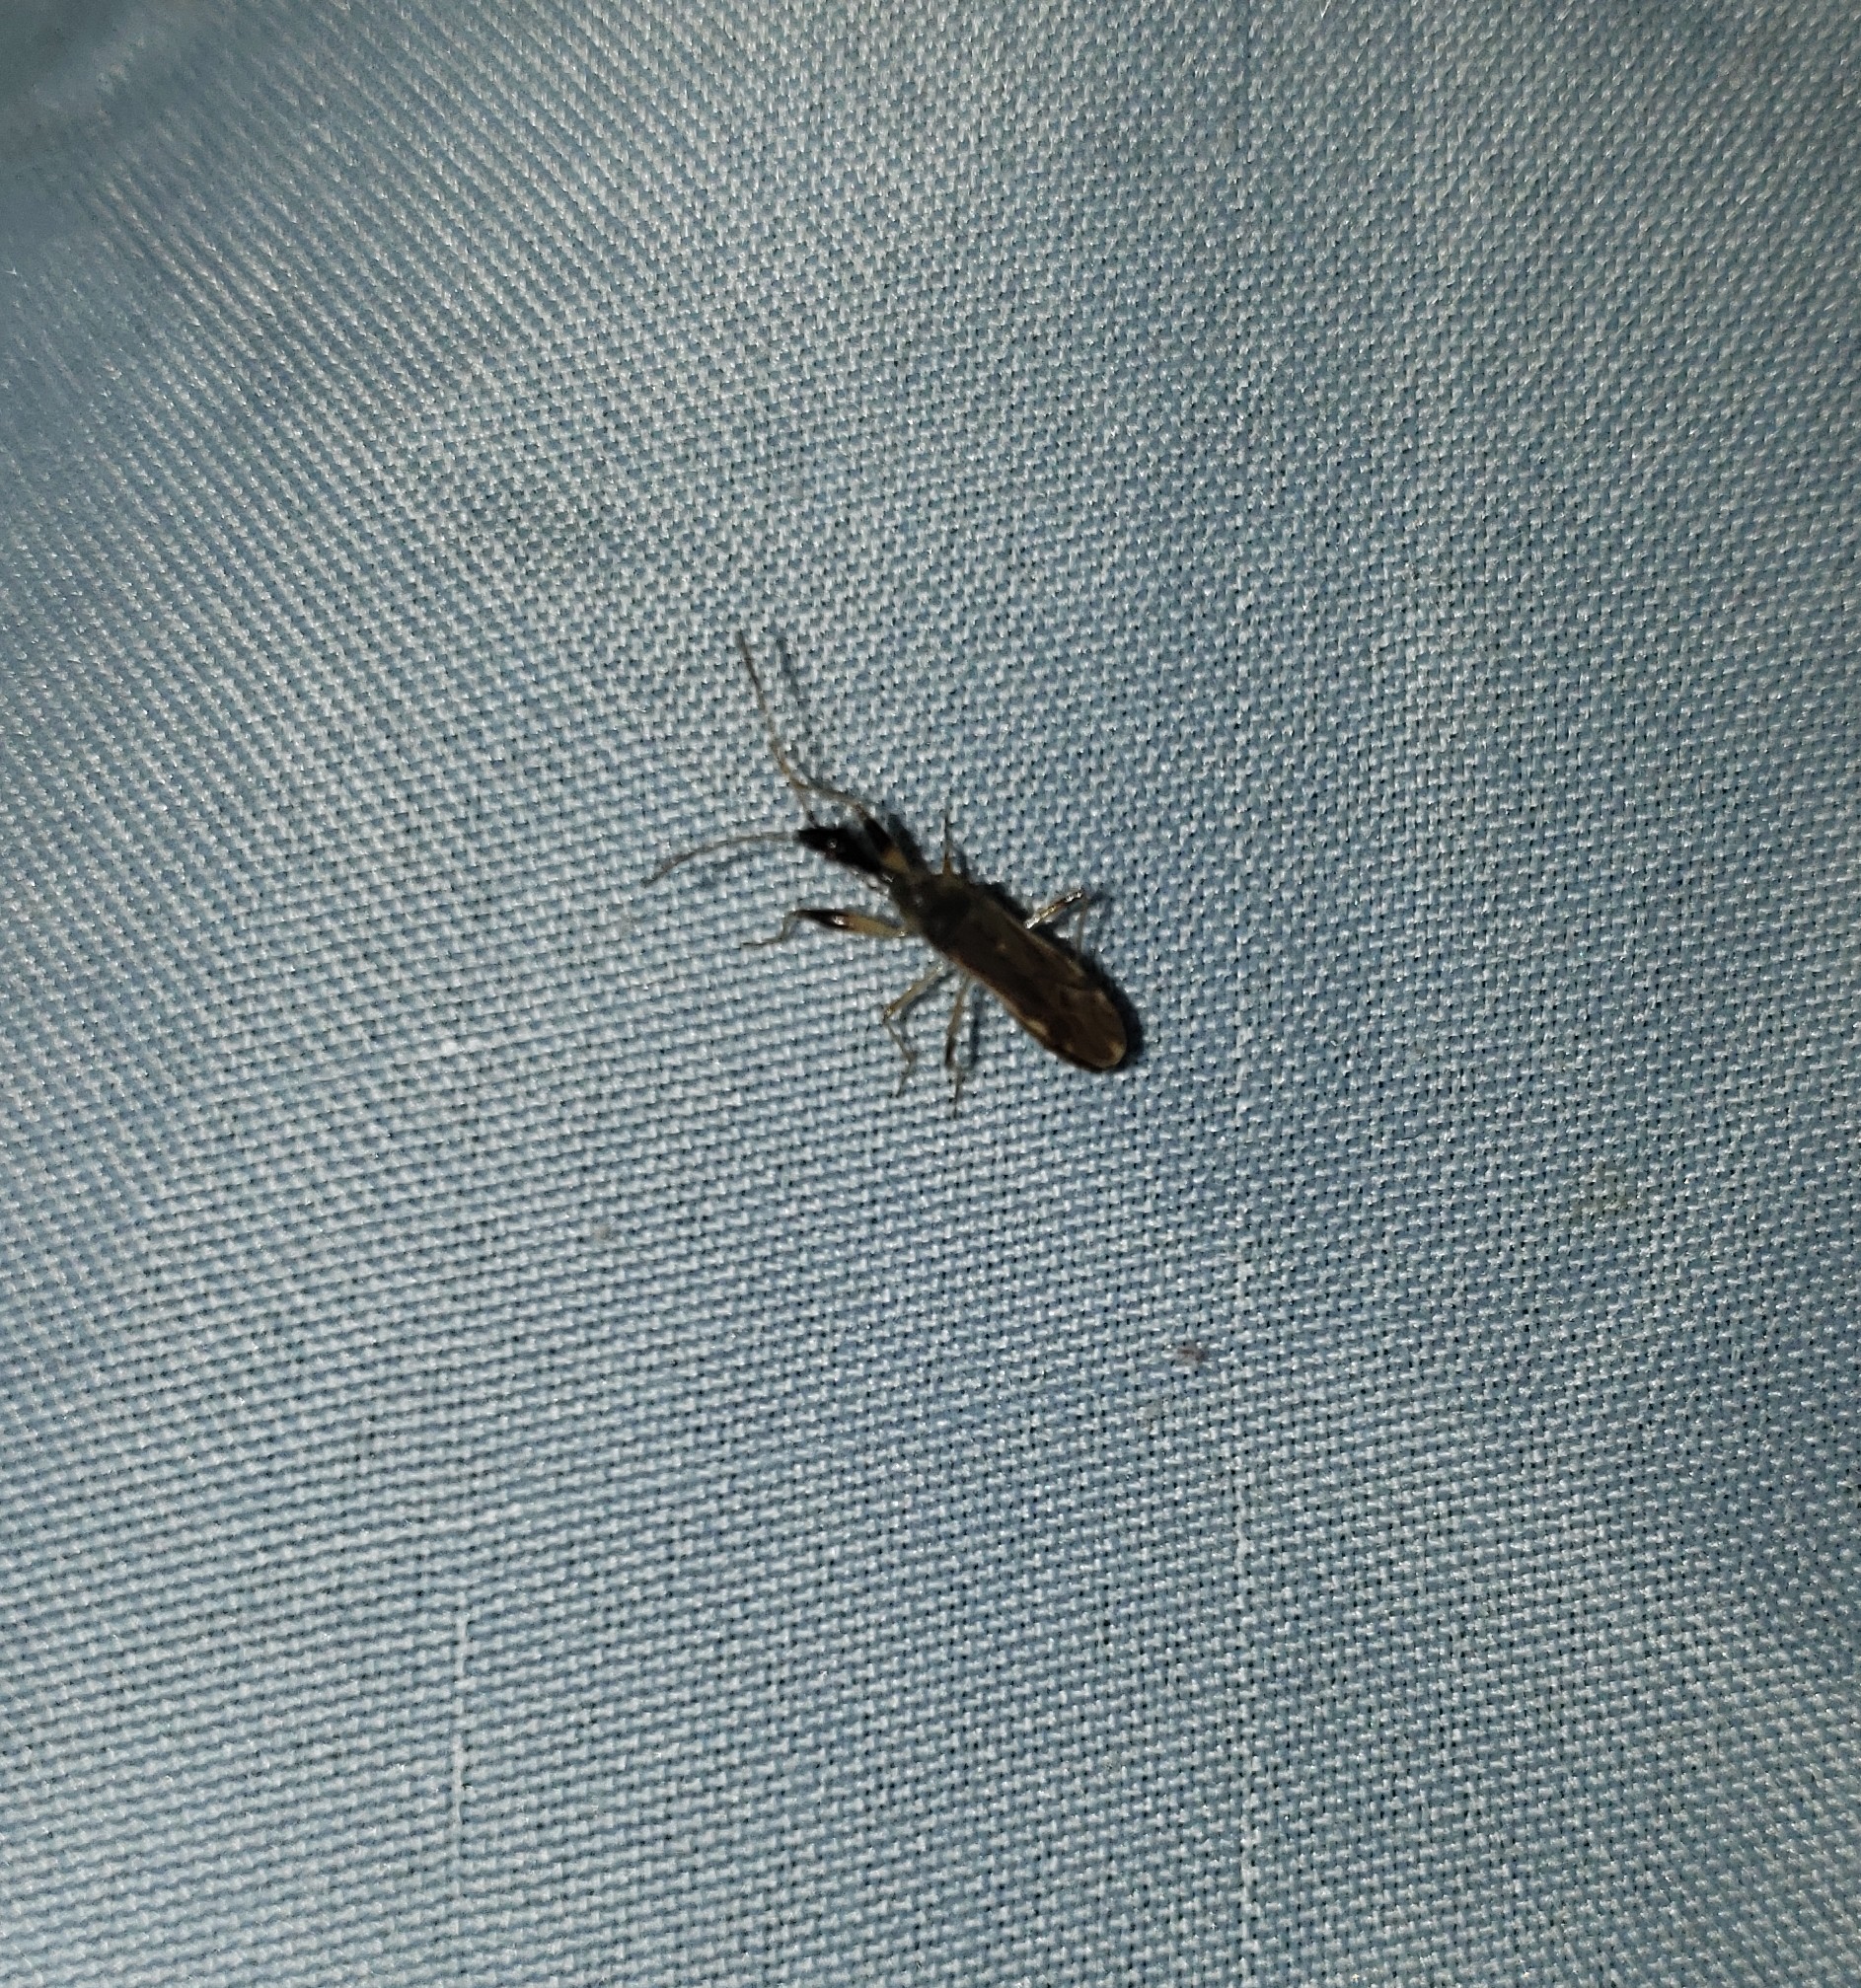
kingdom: Animalia
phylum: Arthropoda
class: Insecta
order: Hemiptera
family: Rhyparochromidae
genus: Myodocha
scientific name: Myodocha serripes
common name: Long-necked seed bug
